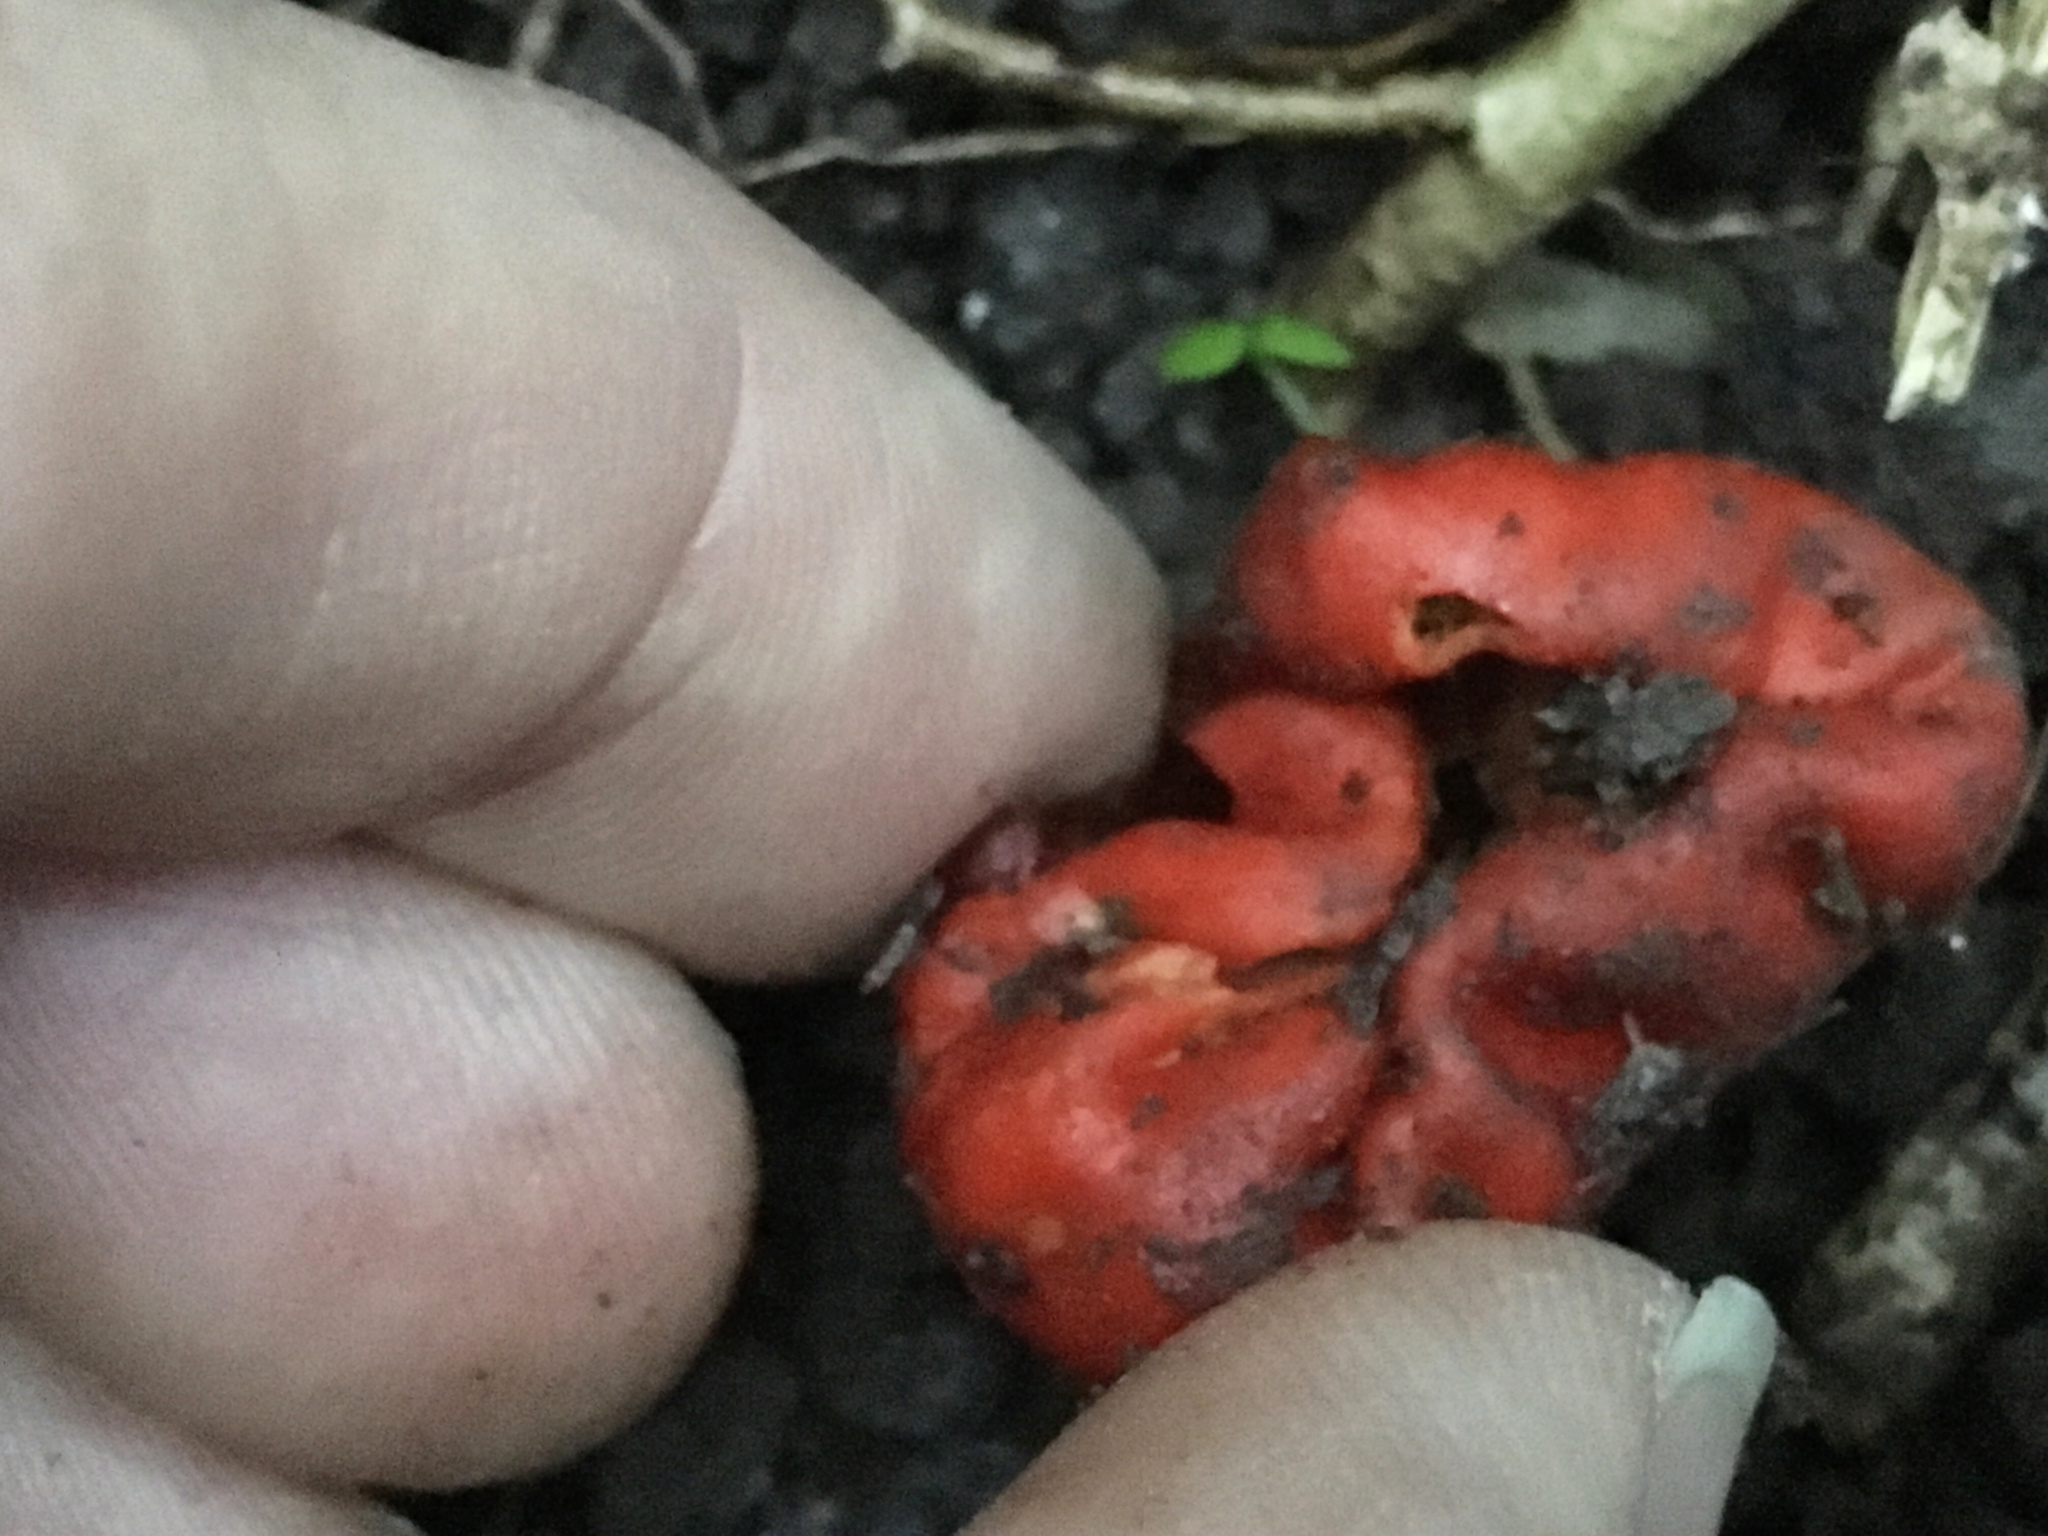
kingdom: Fungi
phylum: Basidiomycota
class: Agaricomycetes
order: Agaricales
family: Strophariaceae
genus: Leratiomyces
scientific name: Leratiomyces erythrocephalus
